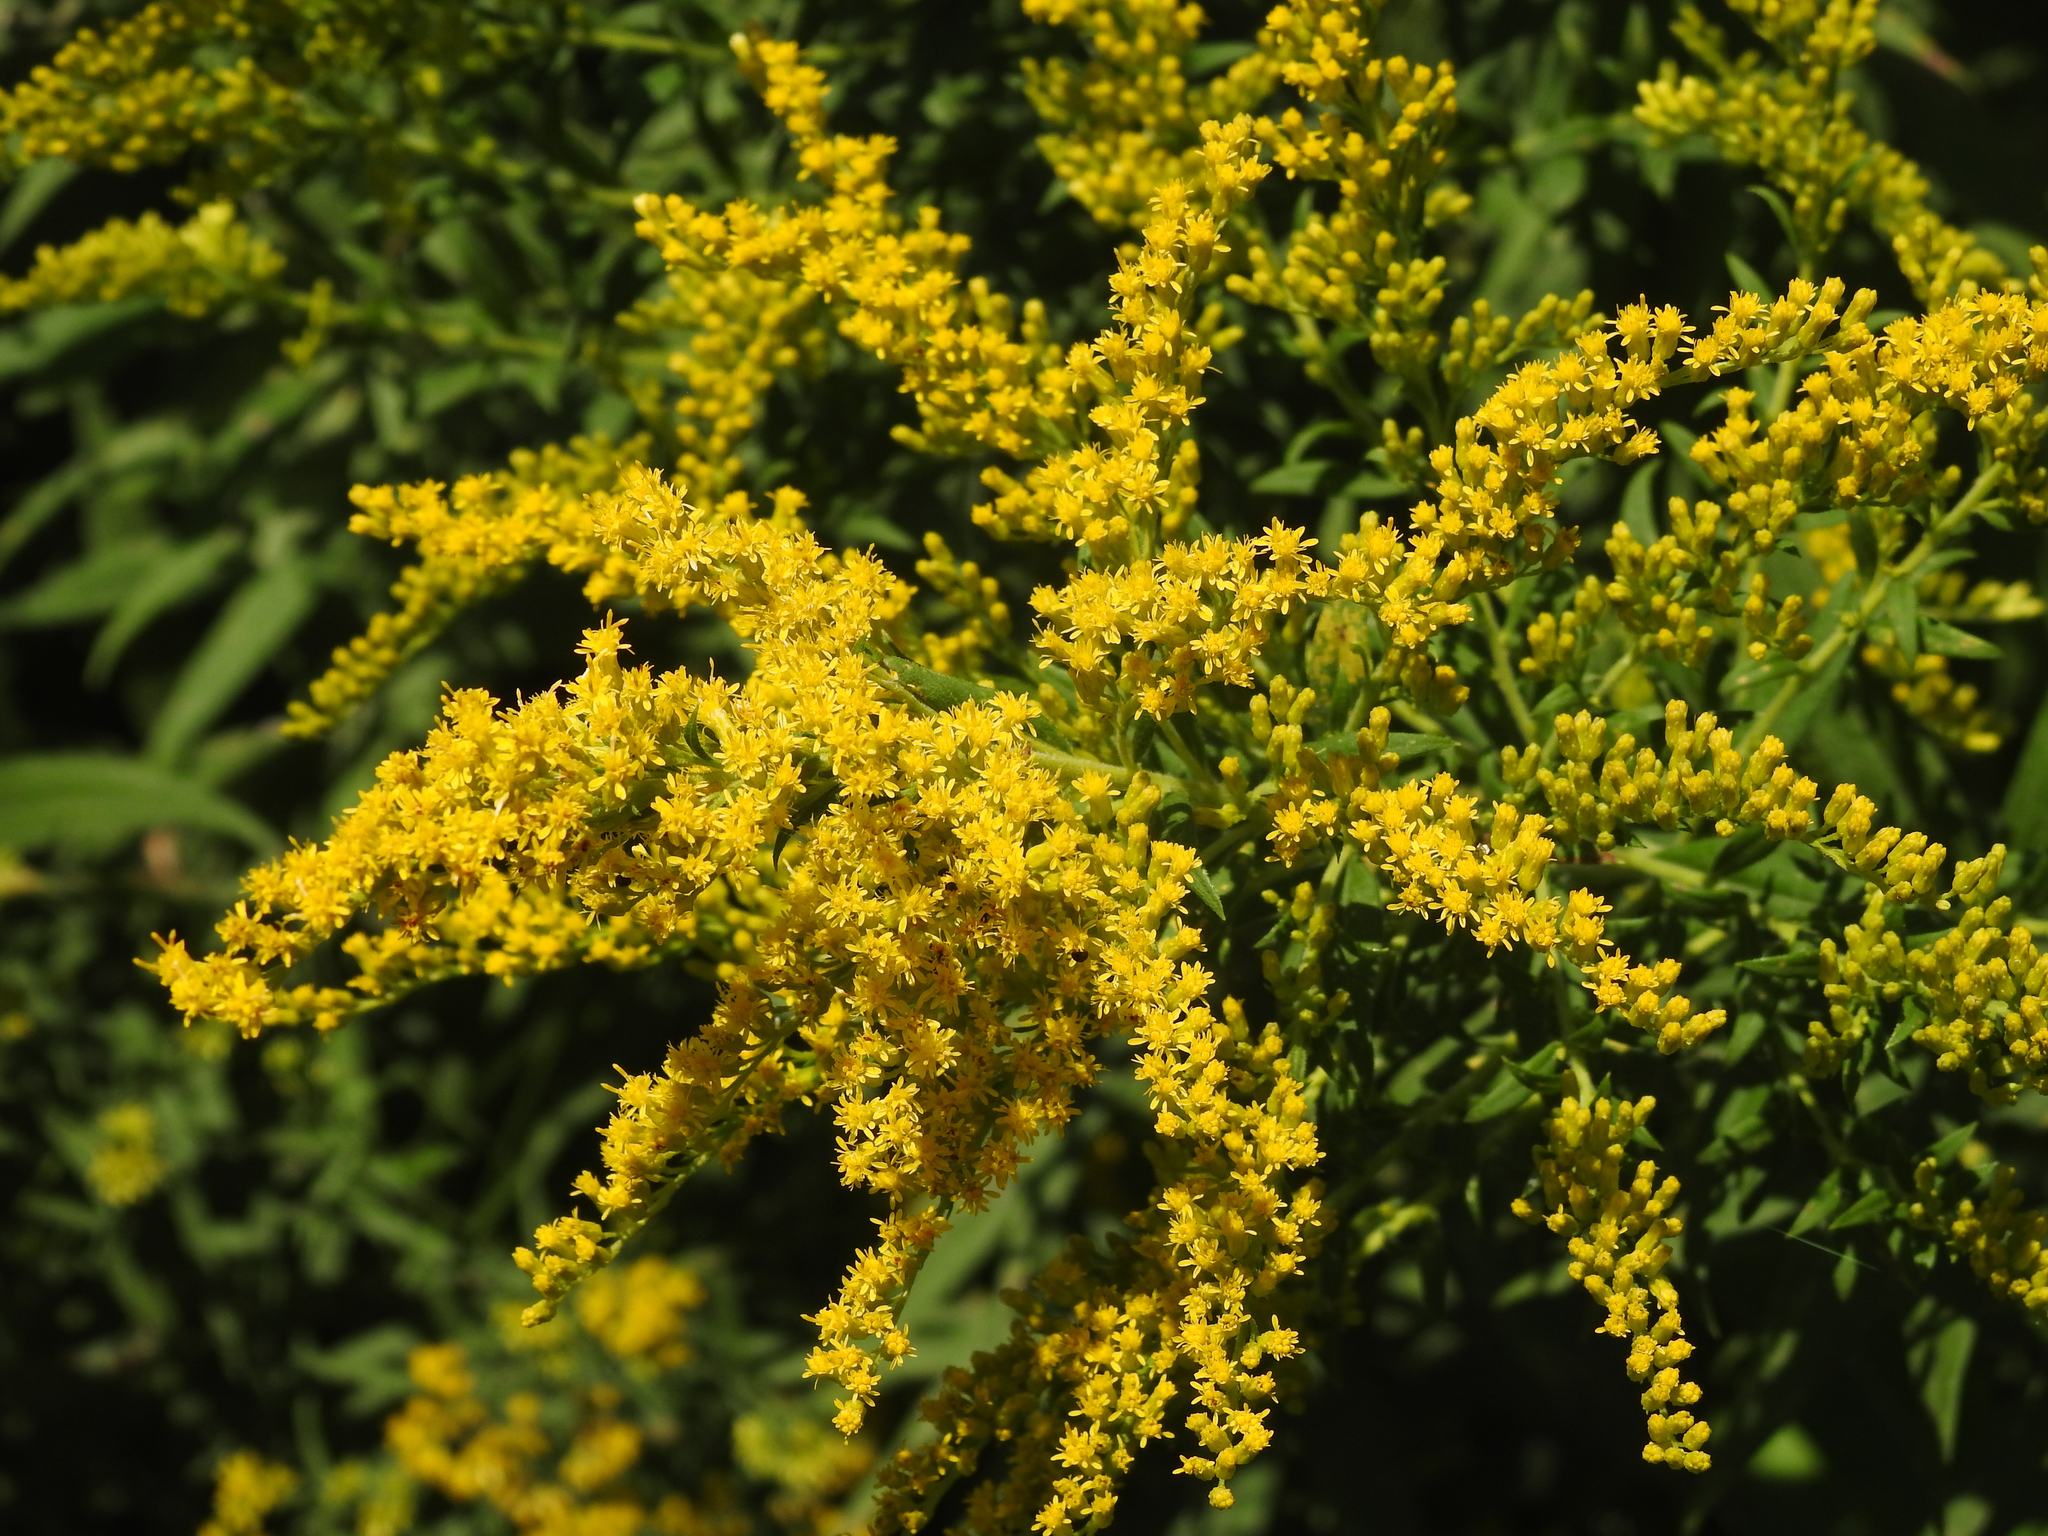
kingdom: Plantae
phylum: Tracheophyta
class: Magnoliopsida
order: Asterales
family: Asteraceae
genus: Solidago
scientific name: Solidago juncea
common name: Early goldenrod
